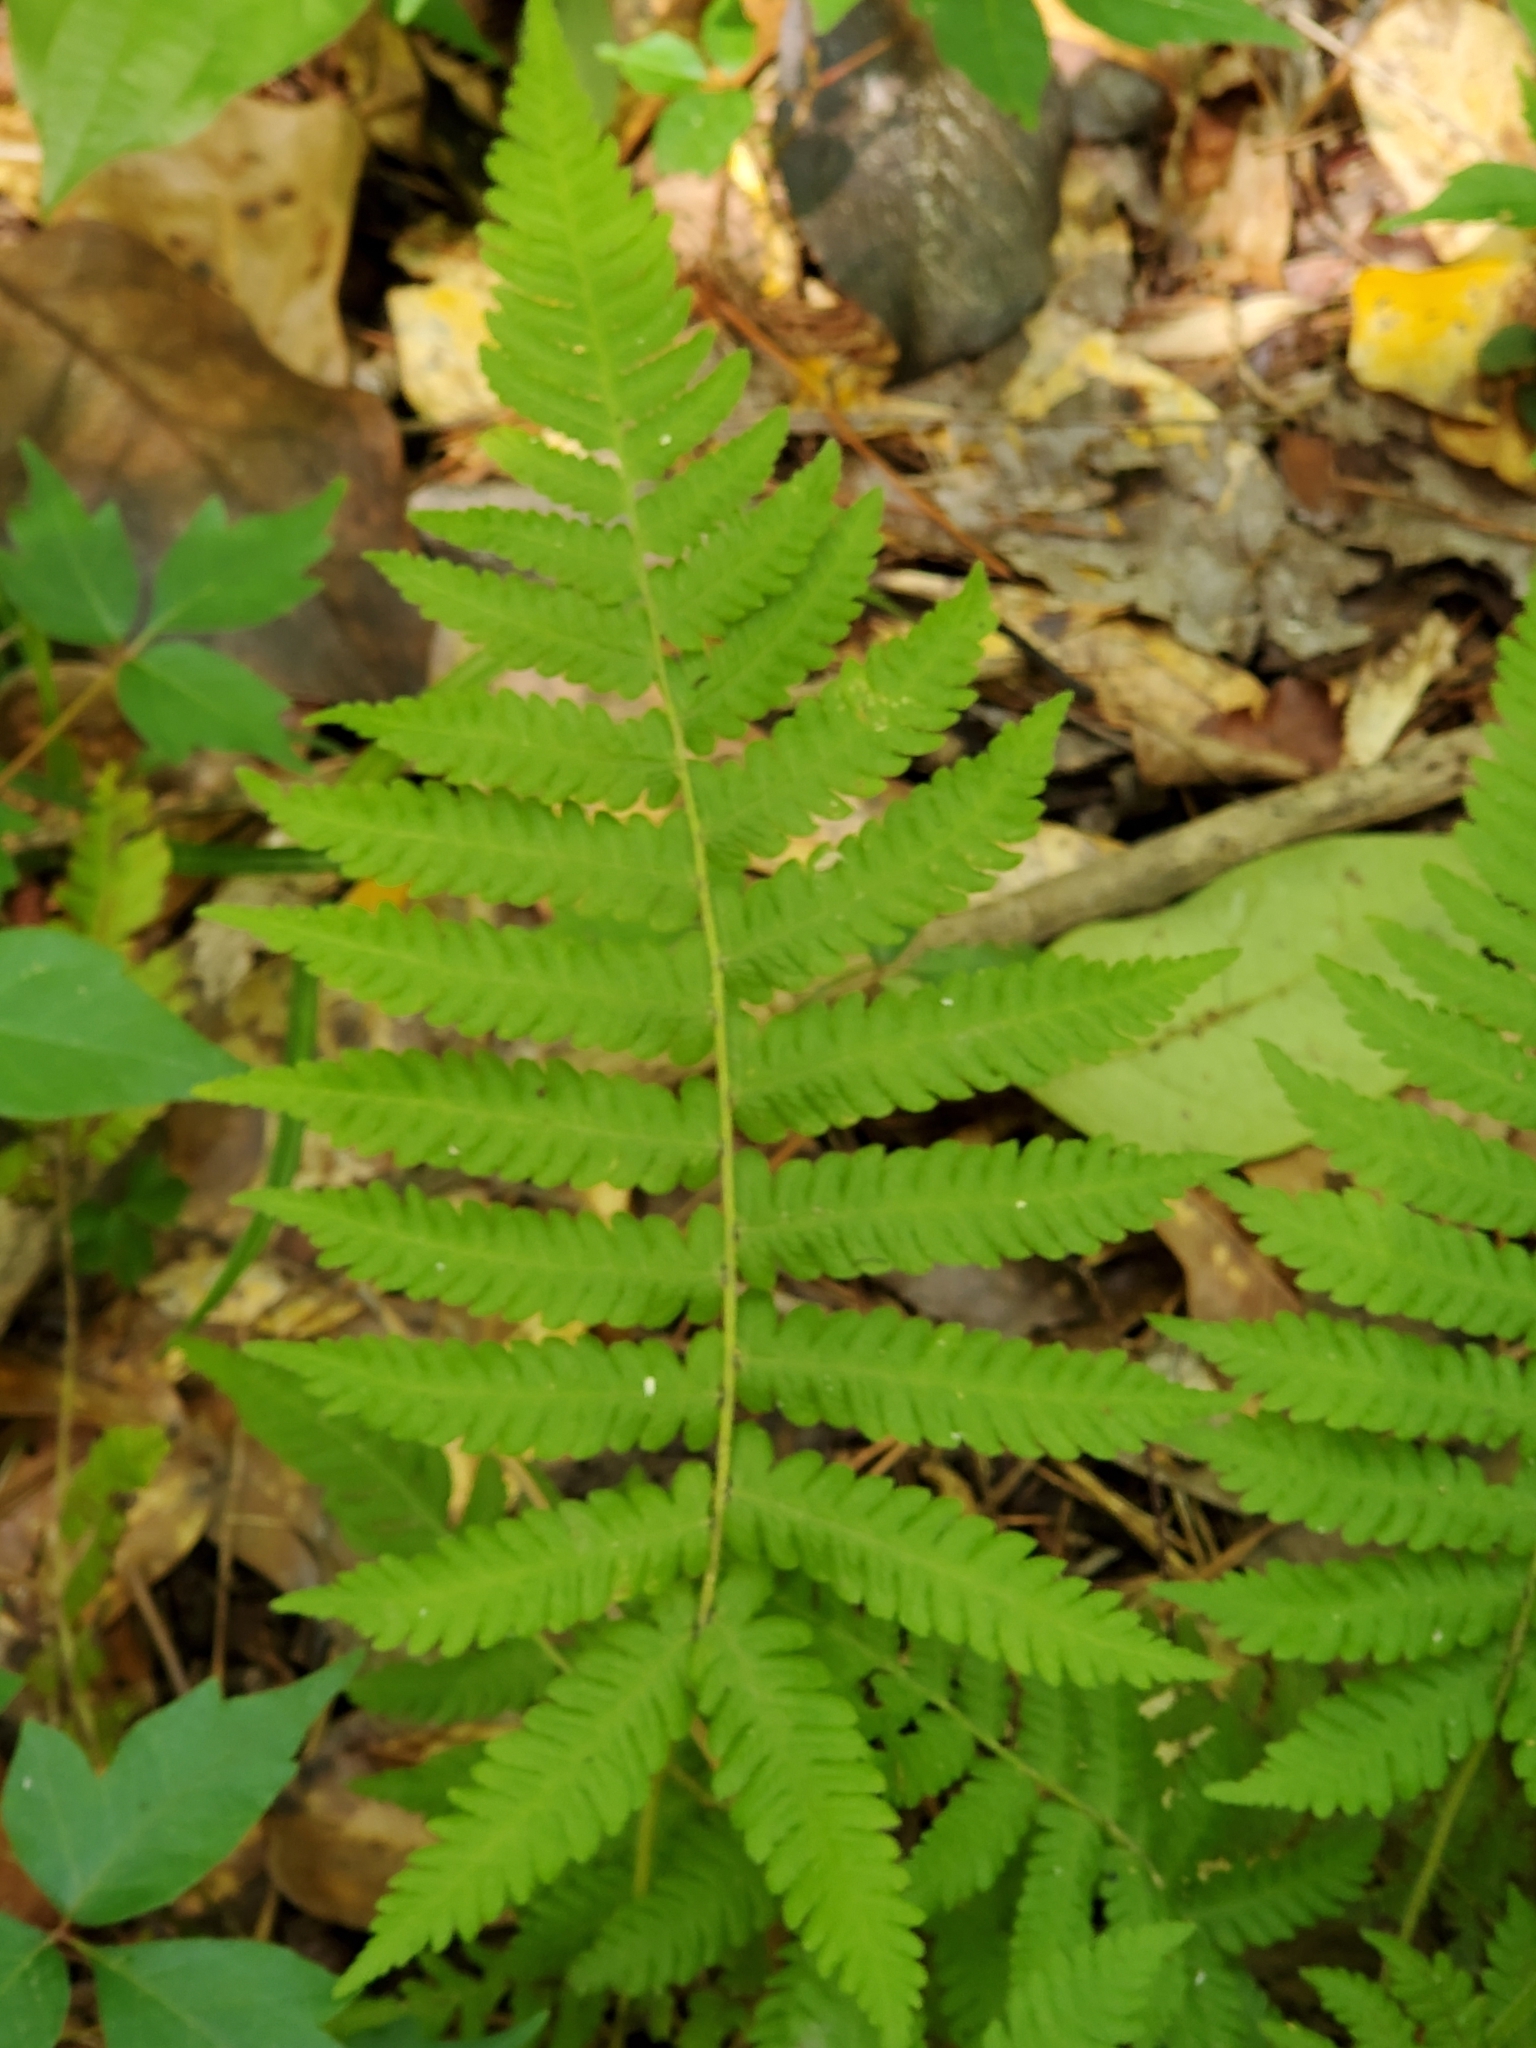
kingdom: Plantae
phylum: Tracheophyta
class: Polypodiopsida
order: Polypodiales
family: Thelypteridaceae
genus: Pelazoneuron
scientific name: Pelazoneuron kunthii
